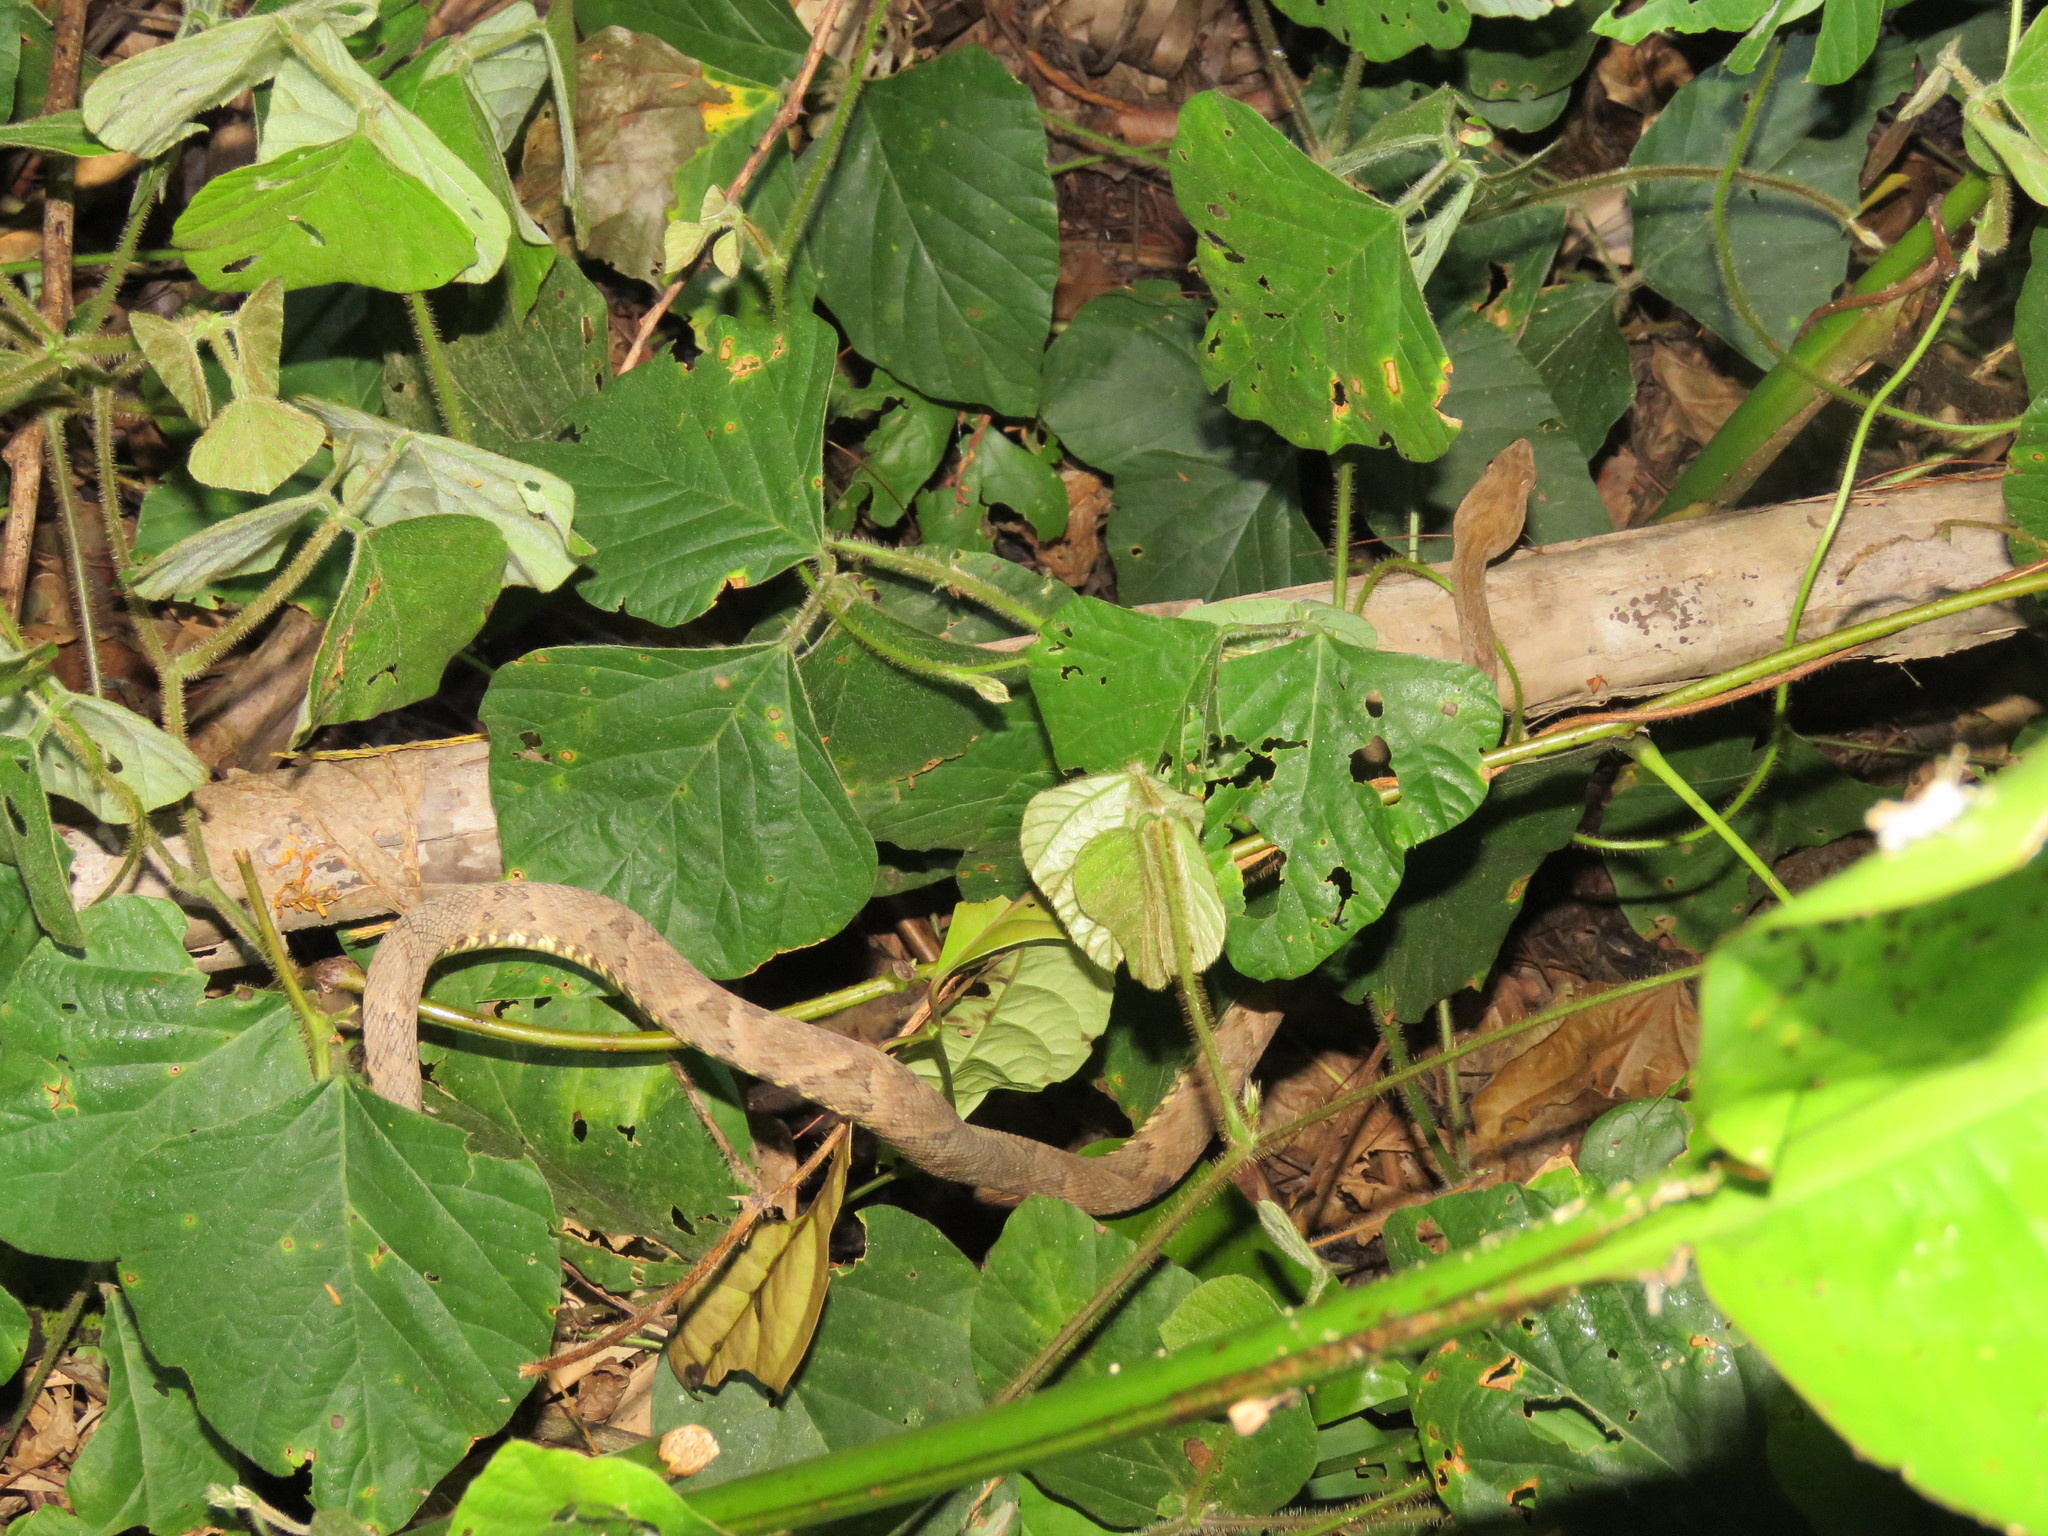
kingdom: Animalia
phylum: Chordata
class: Squamata
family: Viperidae
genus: Bothrops
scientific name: Bothrops atrox
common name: Common lancehead
